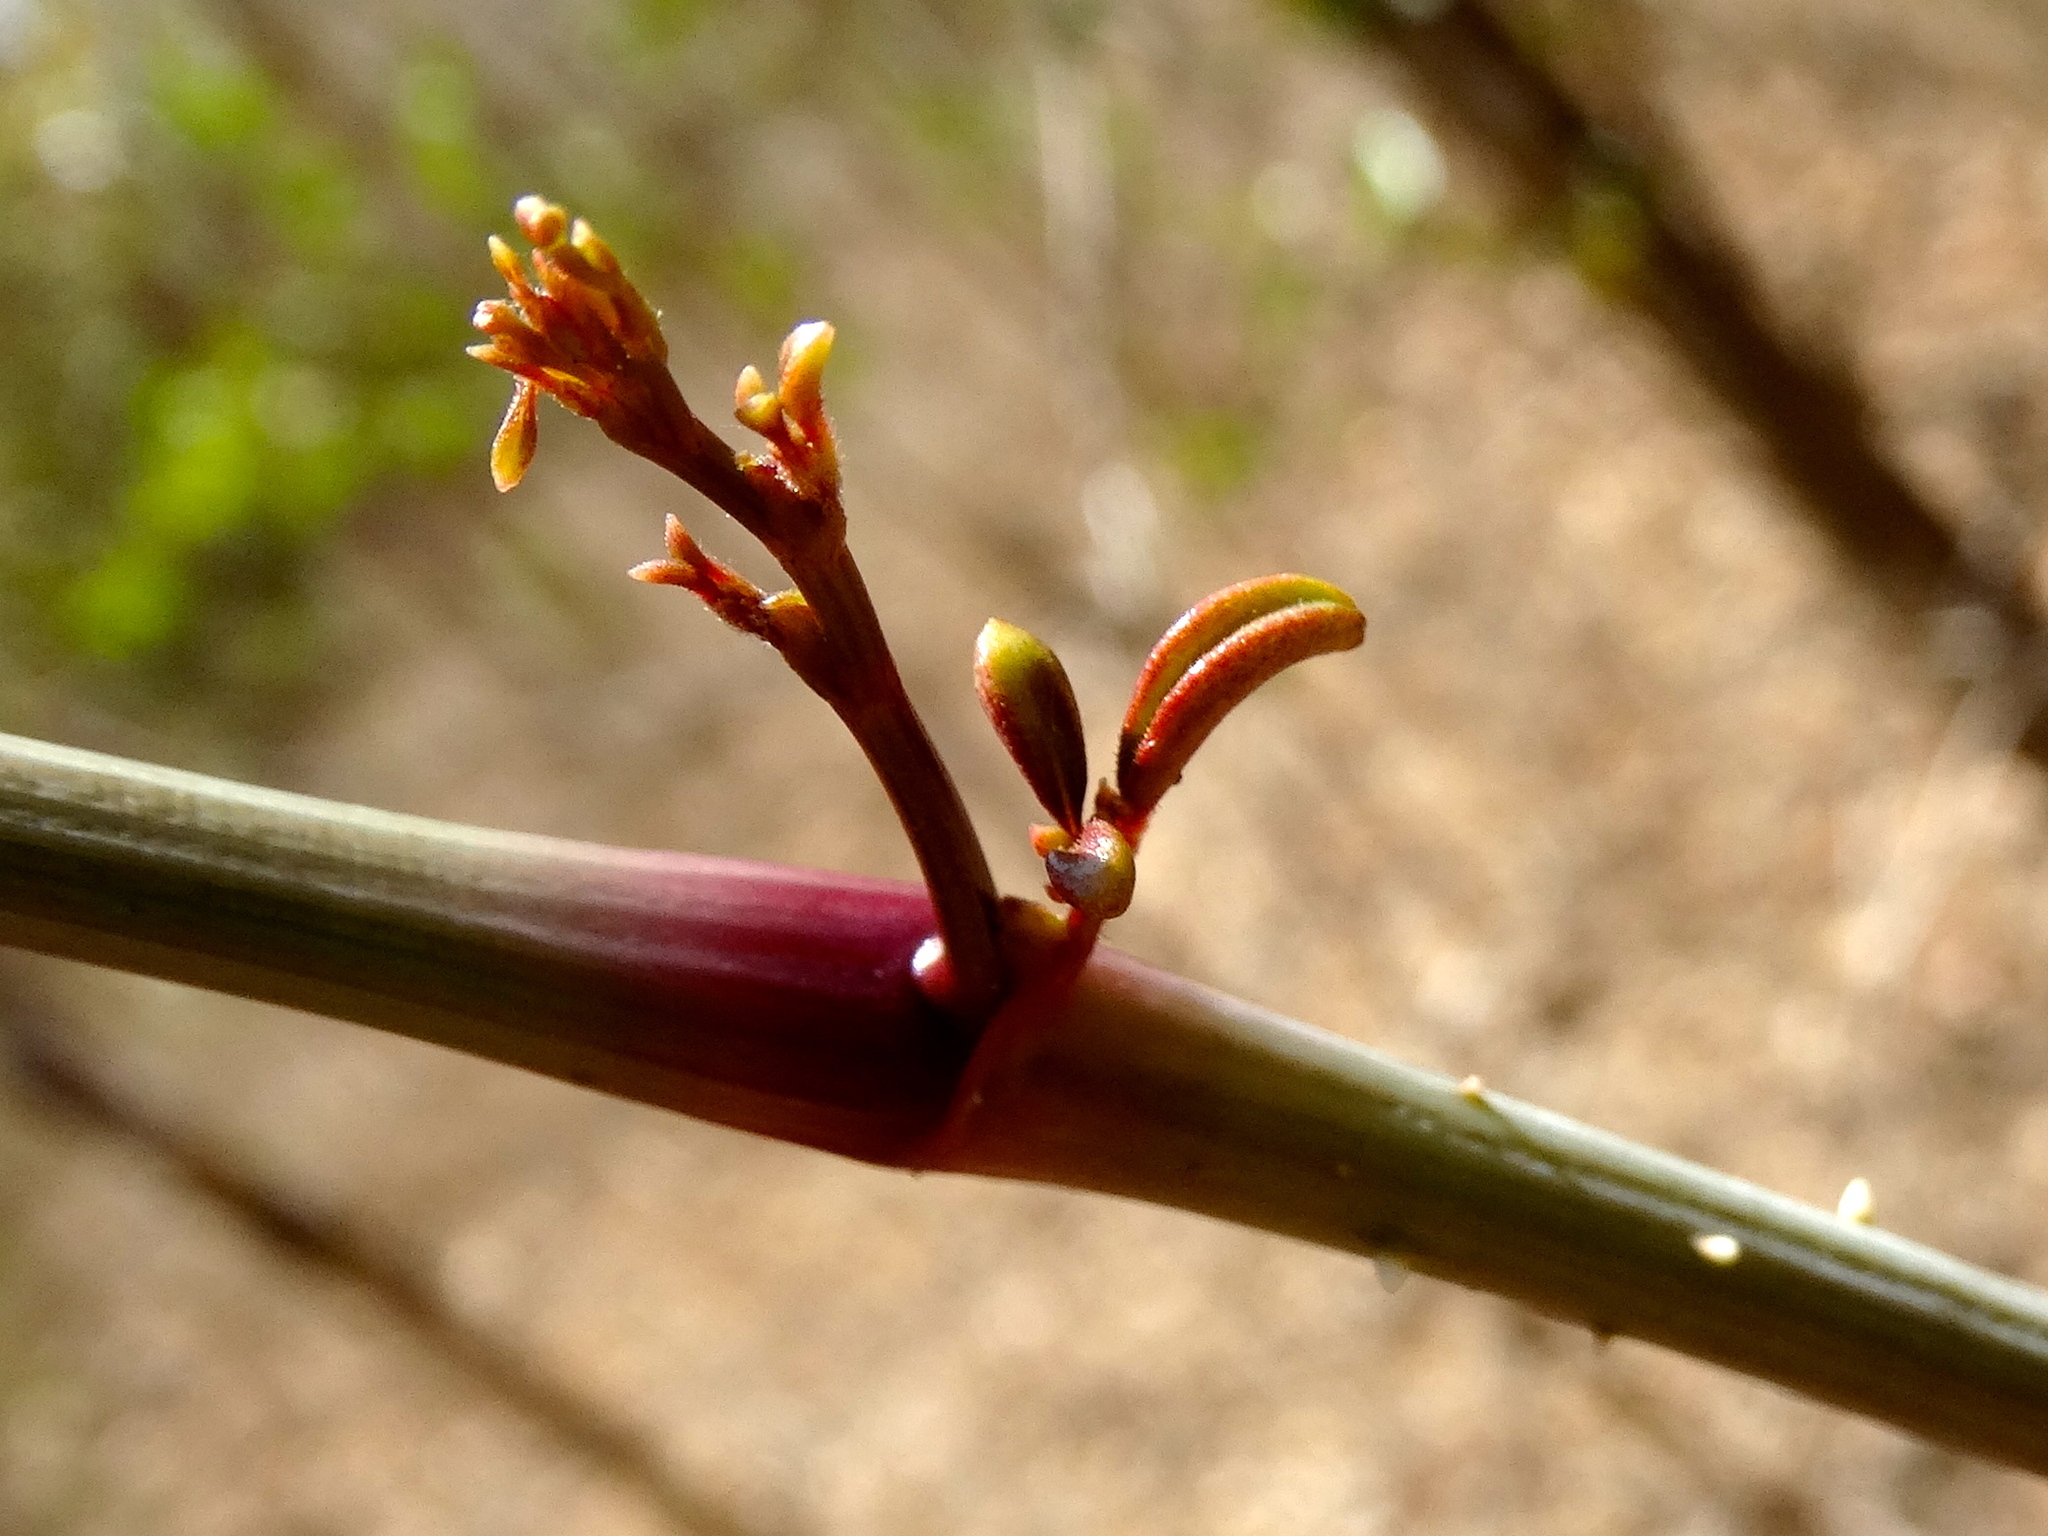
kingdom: Plantae
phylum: Tracheophyta
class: Magnoliopsida
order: Vitales
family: Vitaceae
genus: Parthenocissus
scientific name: Parthenocissus quinquefolia
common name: Virginia-creeper
